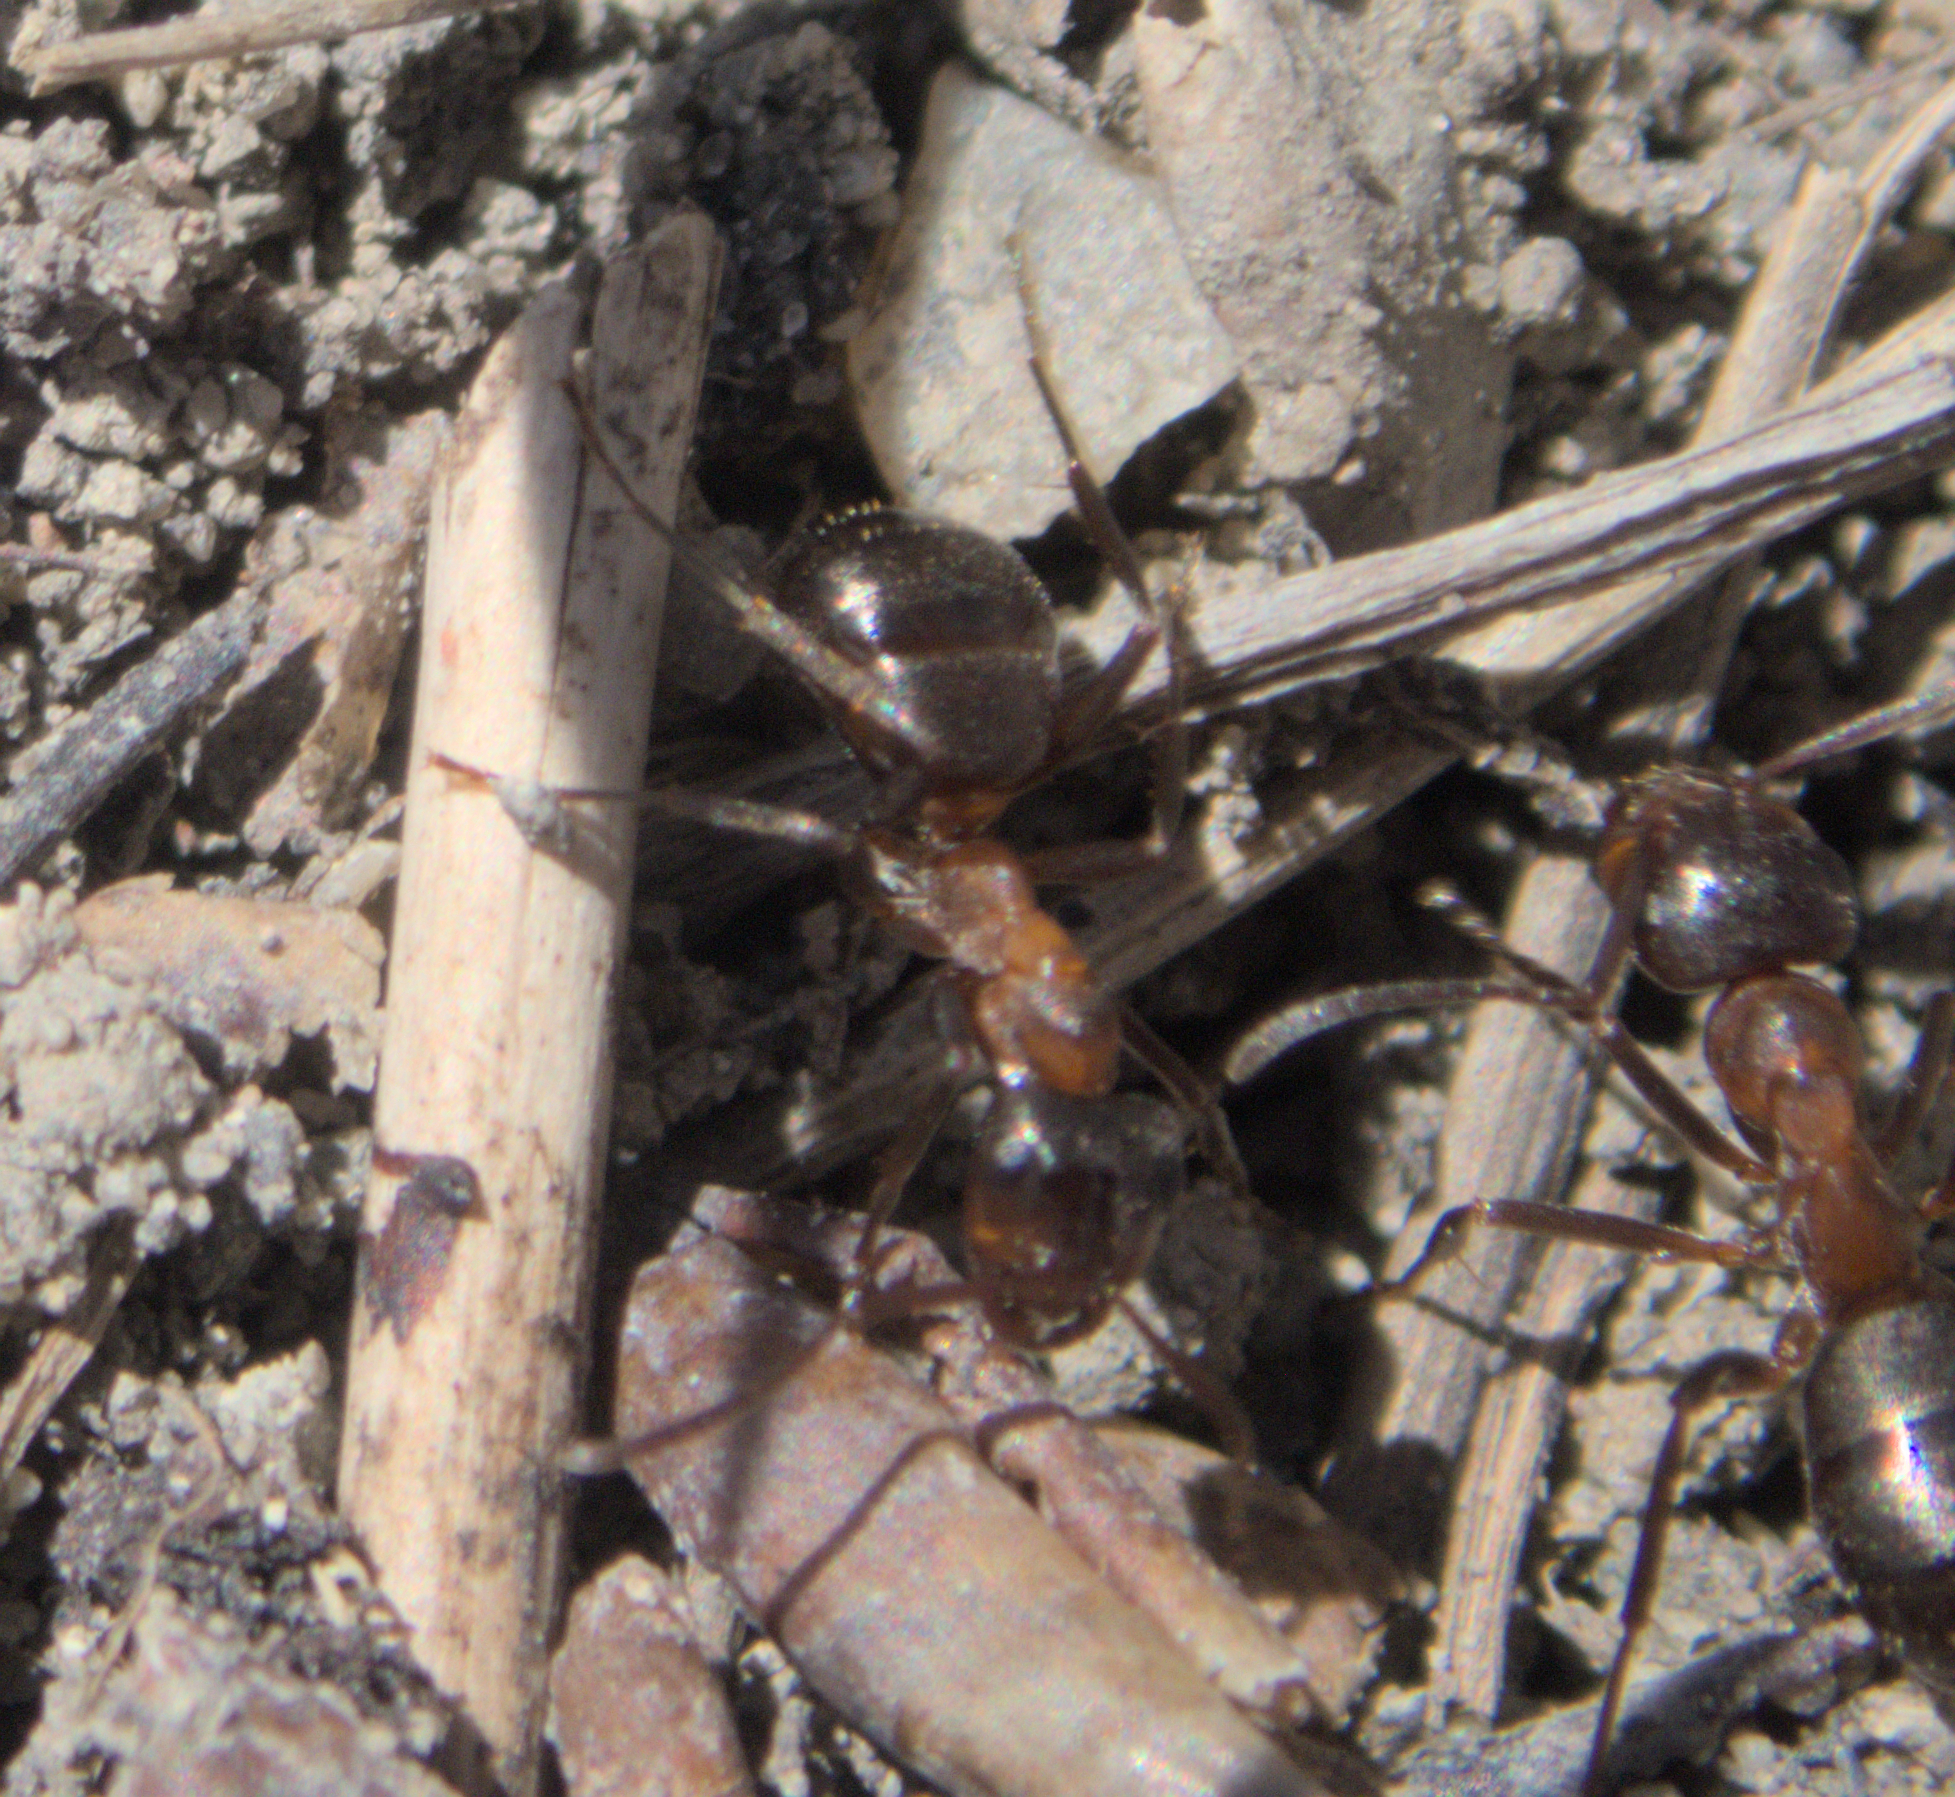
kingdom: Animalia
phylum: Arthropoda
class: Insecta
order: Hymenoptera
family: Formicidae
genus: Formica
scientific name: Formica ulkei
